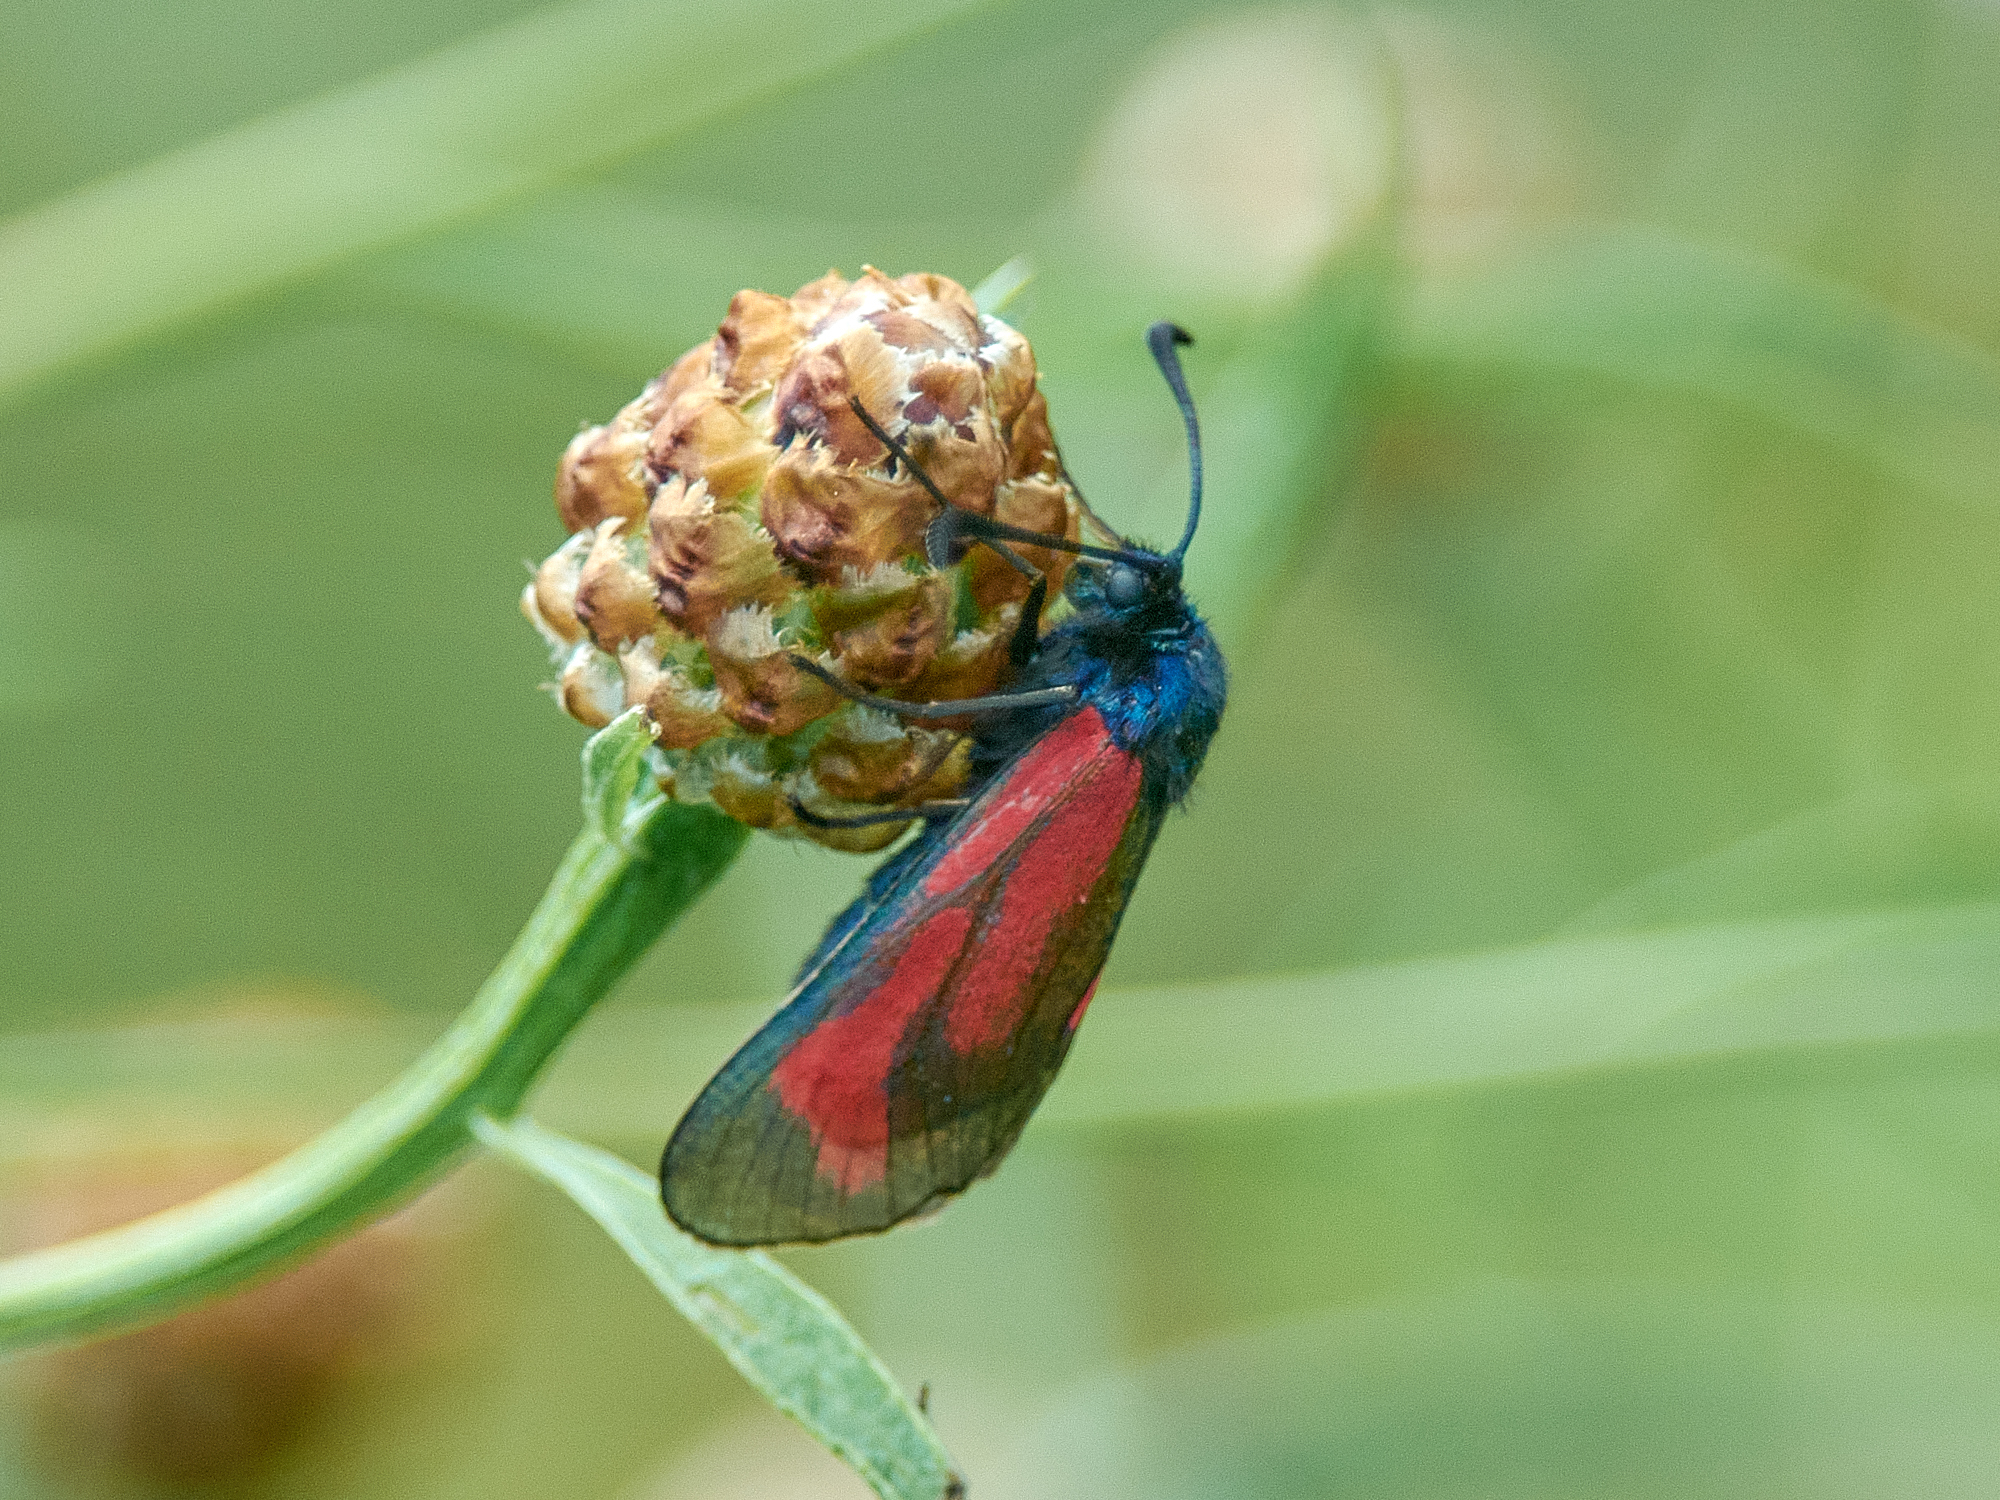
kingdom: Animalia
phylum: Arthropoda
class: Insecta
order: Lepidoptera
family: Zygaenidae
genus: Zygaena
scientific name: Zygaena minos
